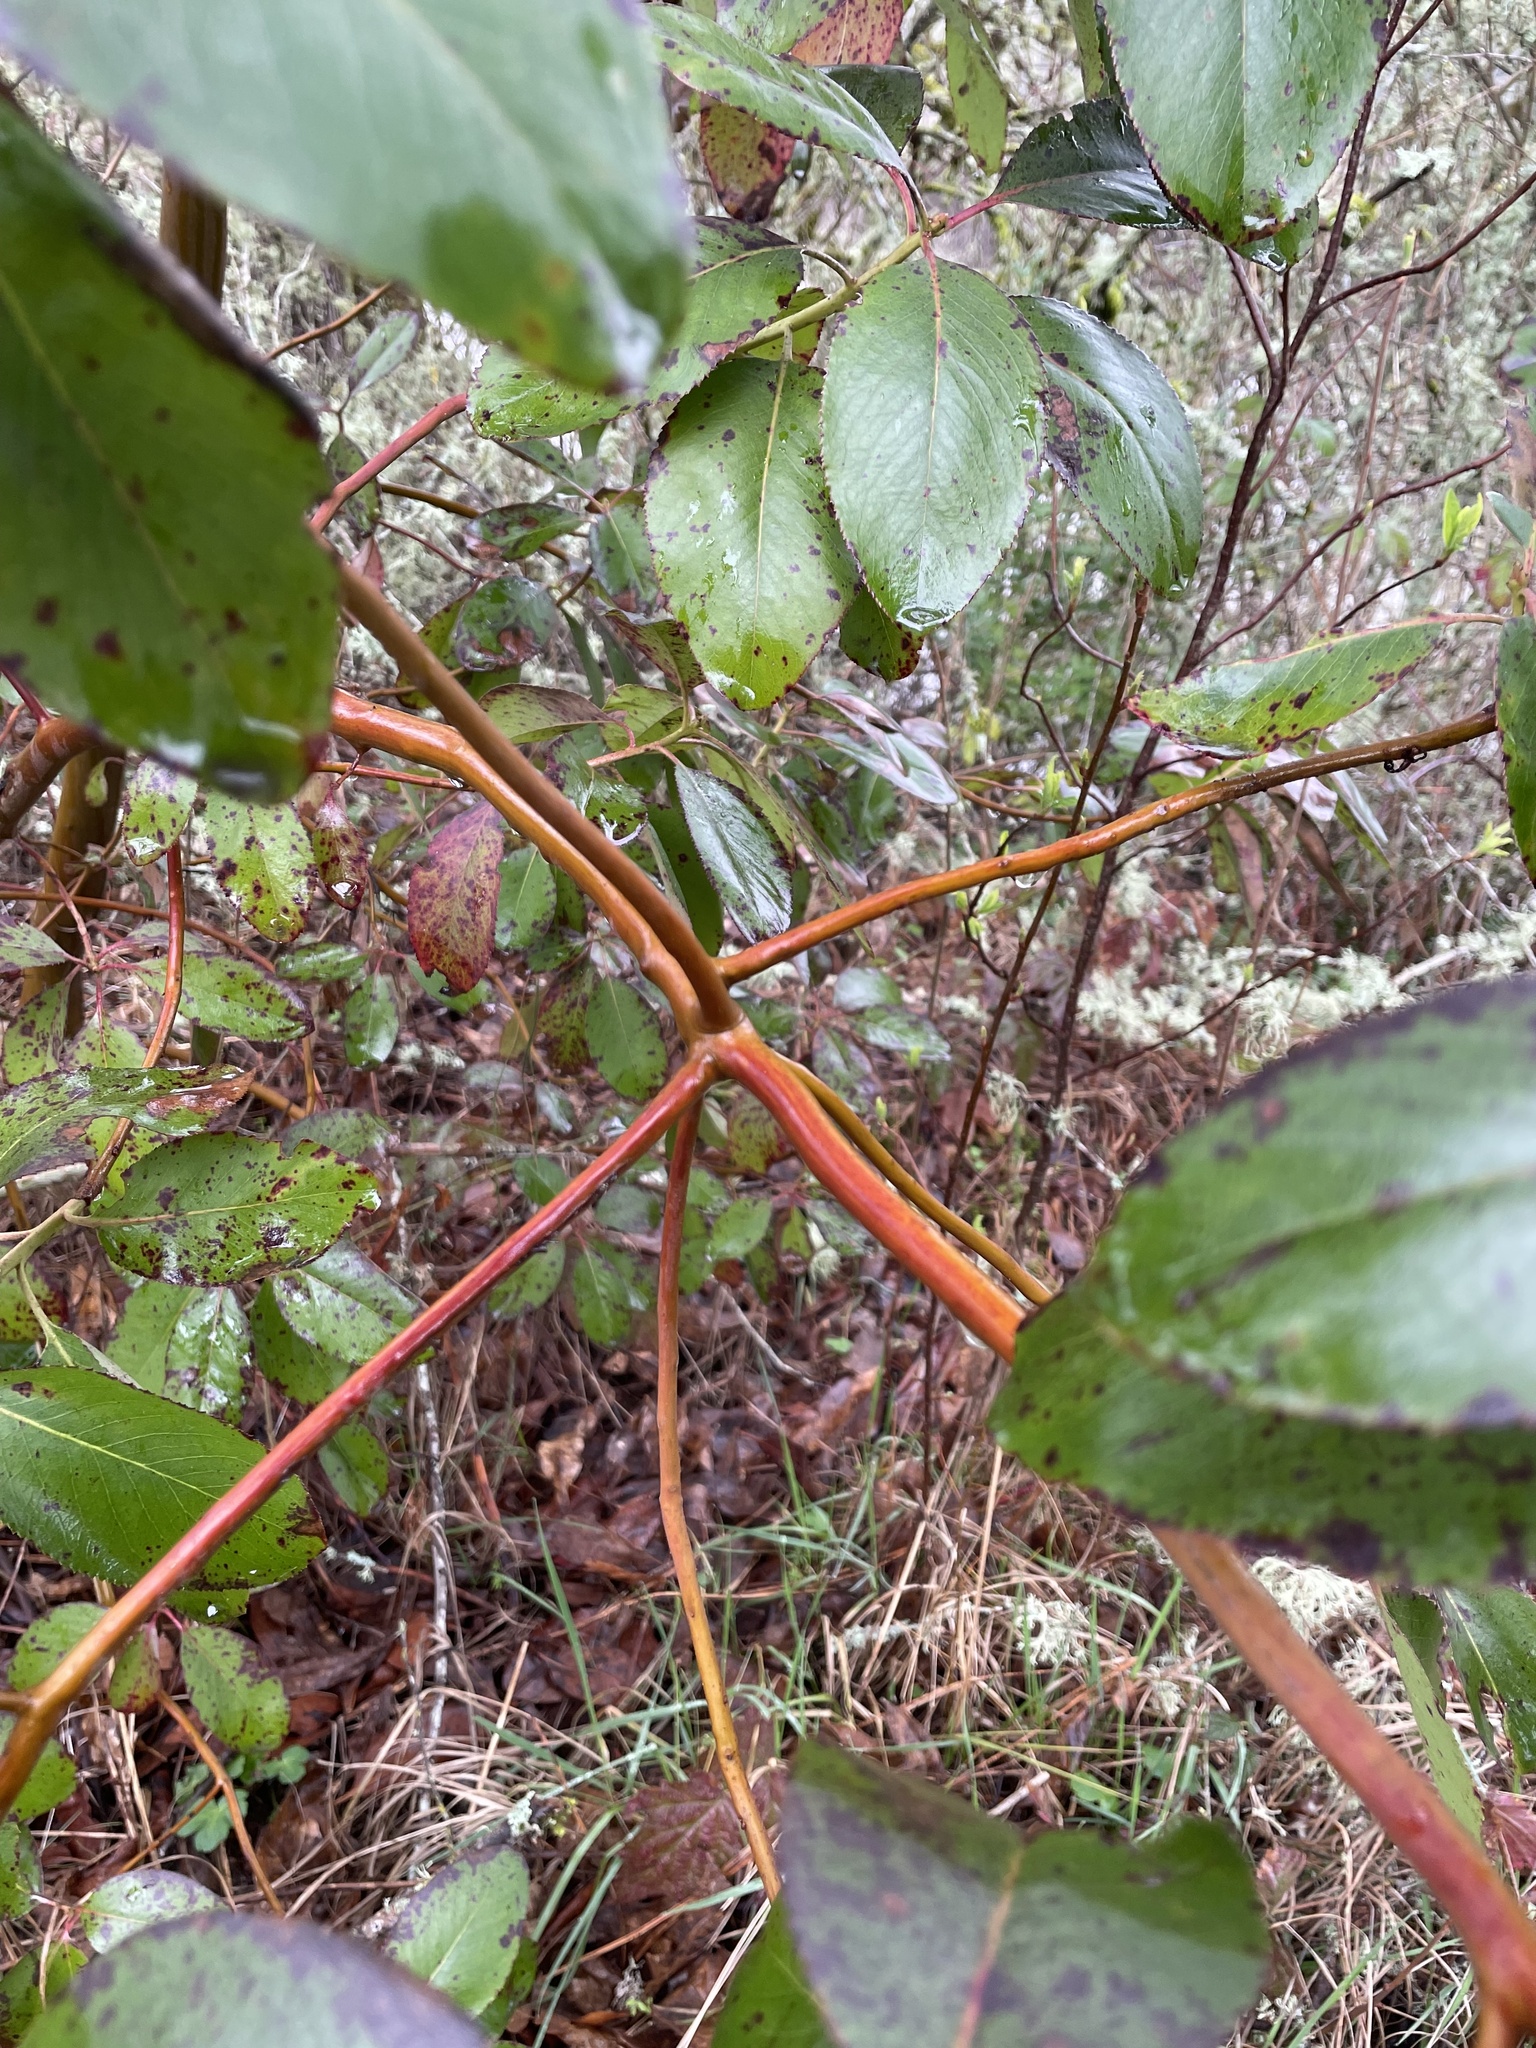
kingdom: Plantae
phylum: Tracheophyta
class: Magnoliopsida
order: Ericales
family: Ericaceae
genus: Arbutus
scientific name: Arbutus menziesii
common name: Pacific madrone
